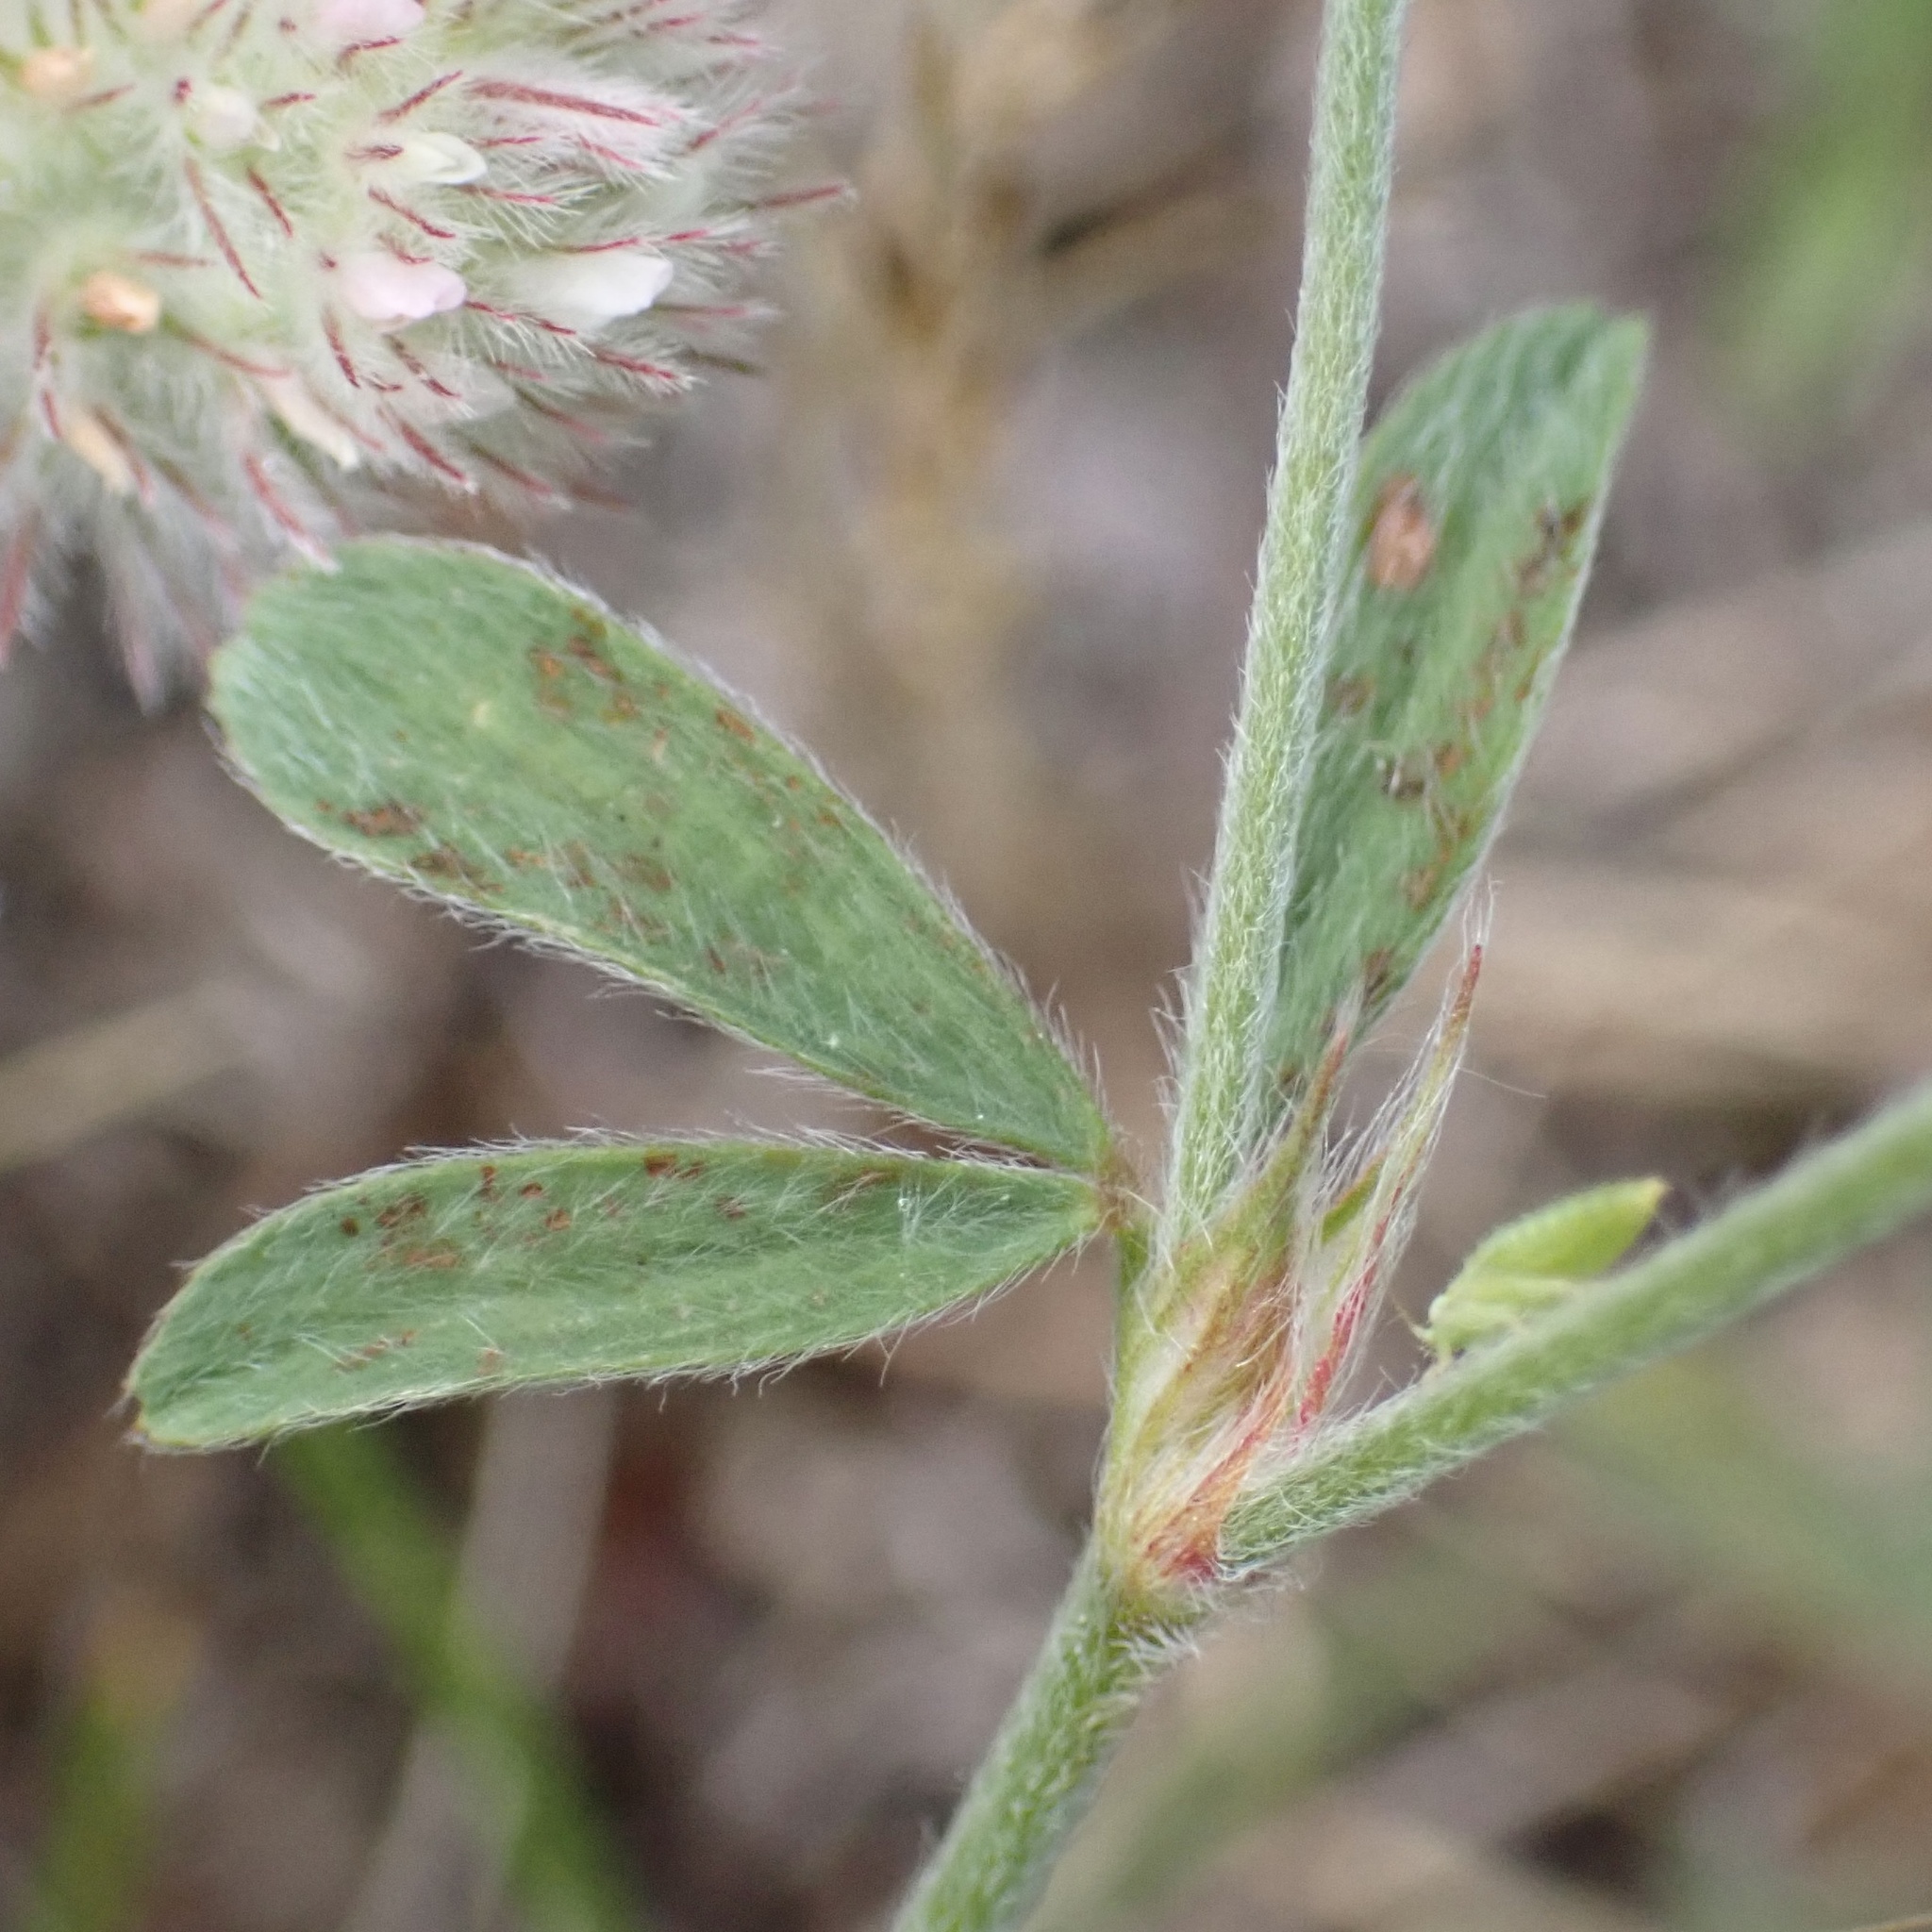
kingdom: Plantae
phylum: Tracheophyta
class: Magnoliopsida
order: Fabales
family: Fabaceae
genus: Trifolium
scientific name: Trifolium arvense
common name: Hare's-foot clover
